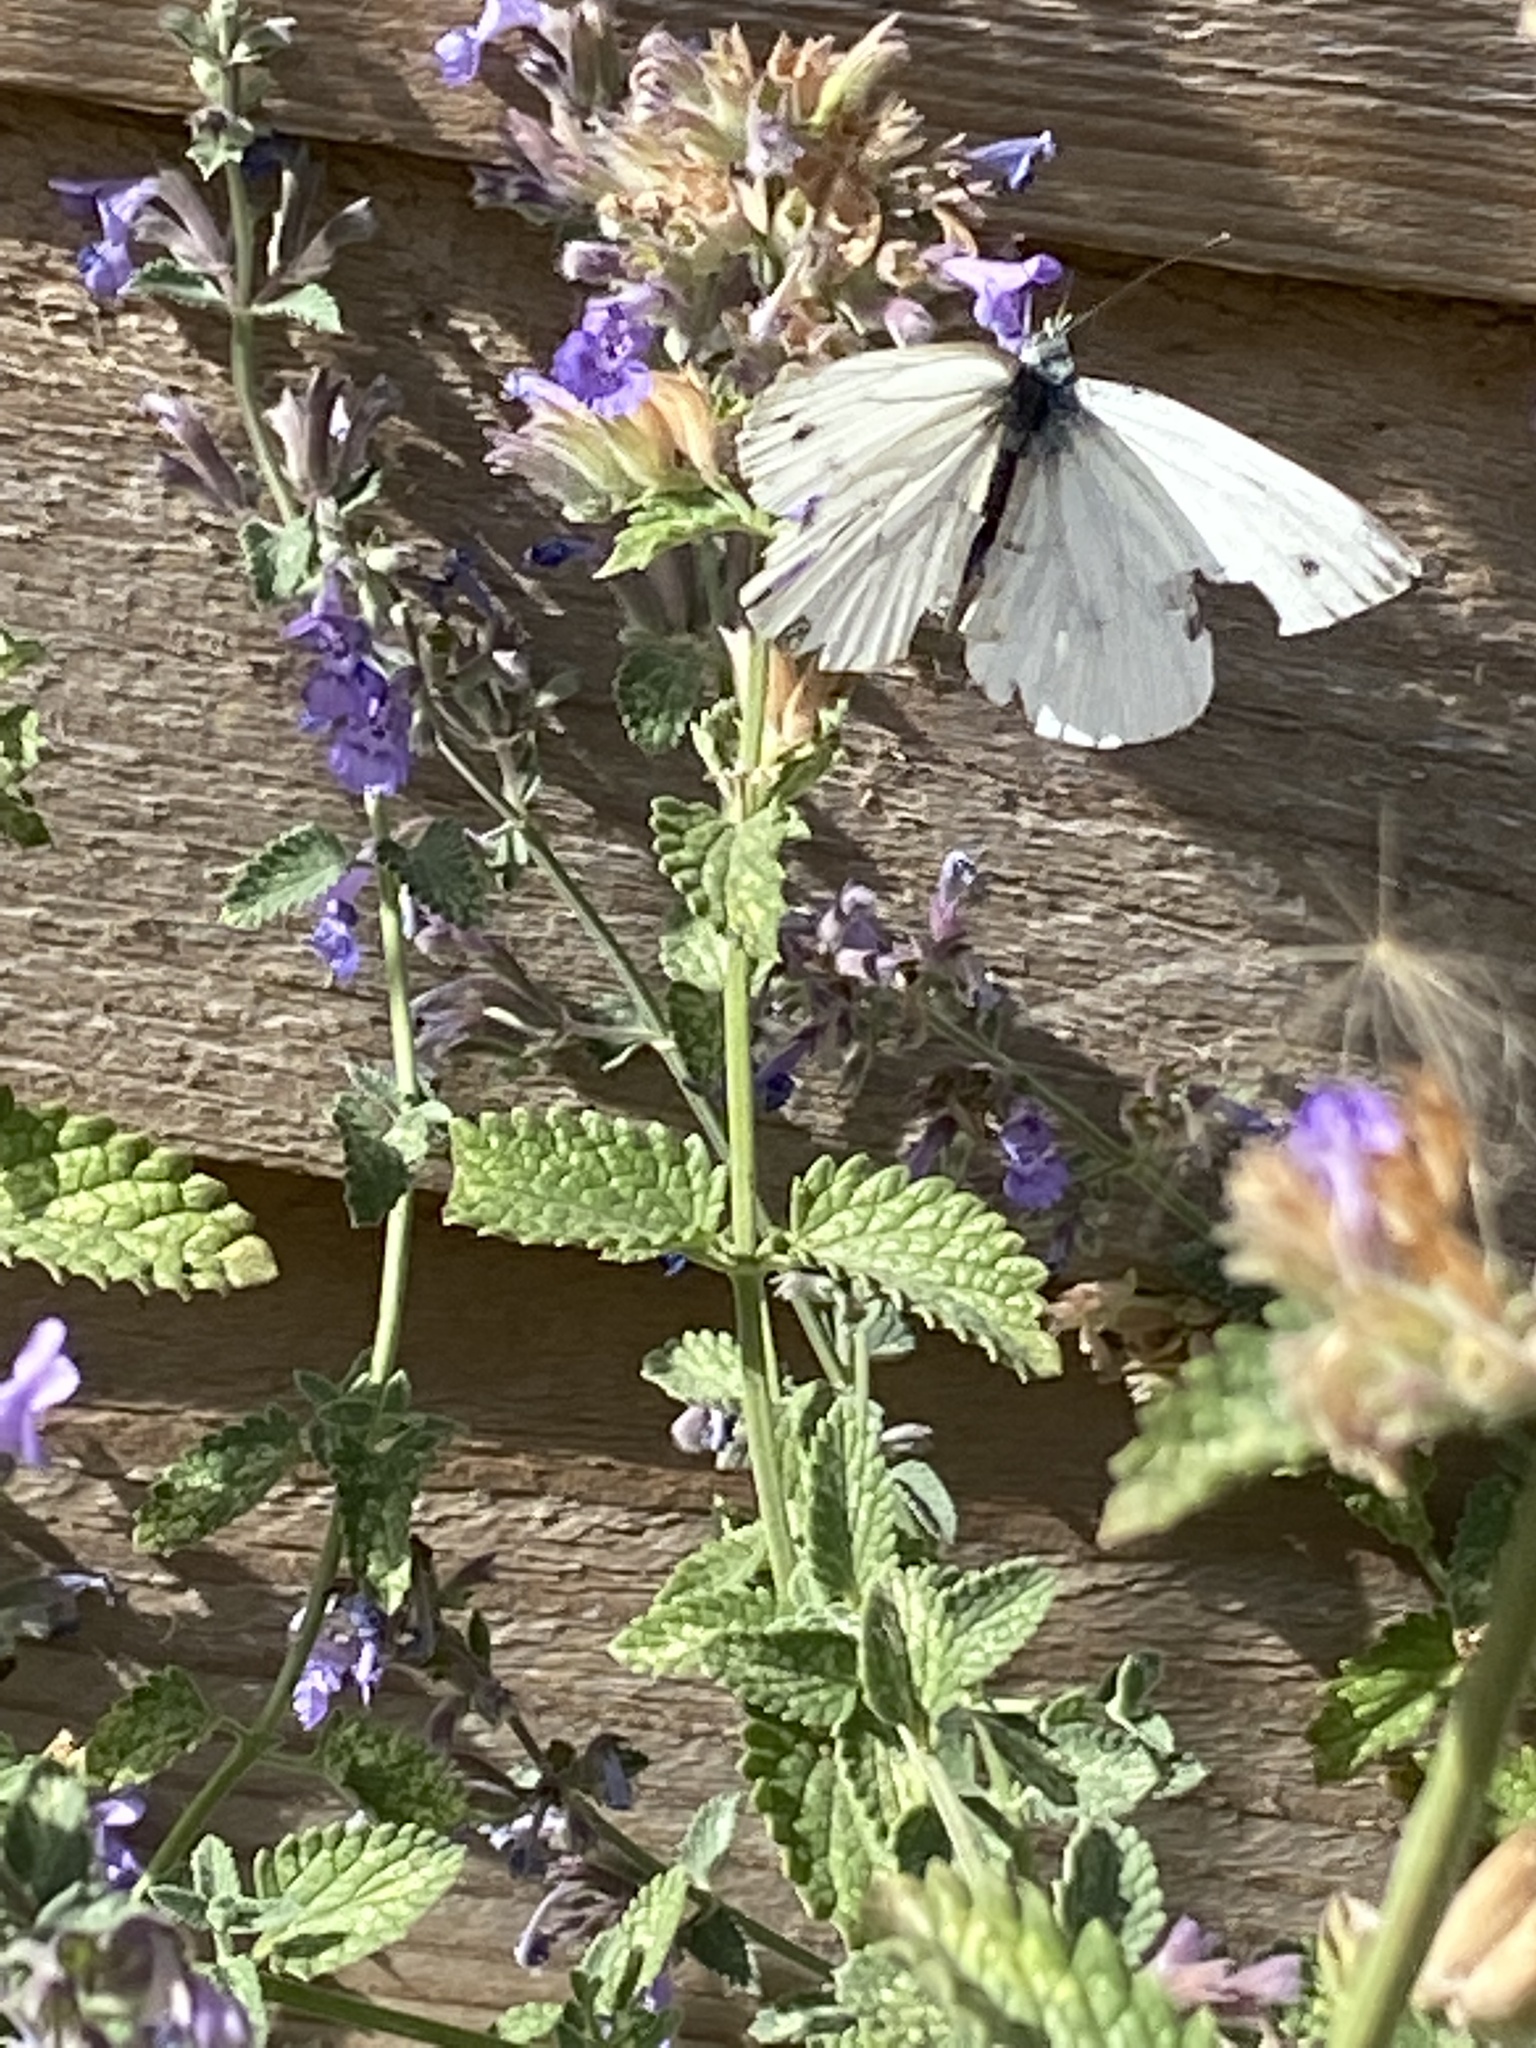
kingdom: Animalia
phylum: Arthropoda
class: Insecta
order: Lepidoptera
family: Pieridae
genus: Pieris
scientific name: Pieris napi
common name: Green-veined white
